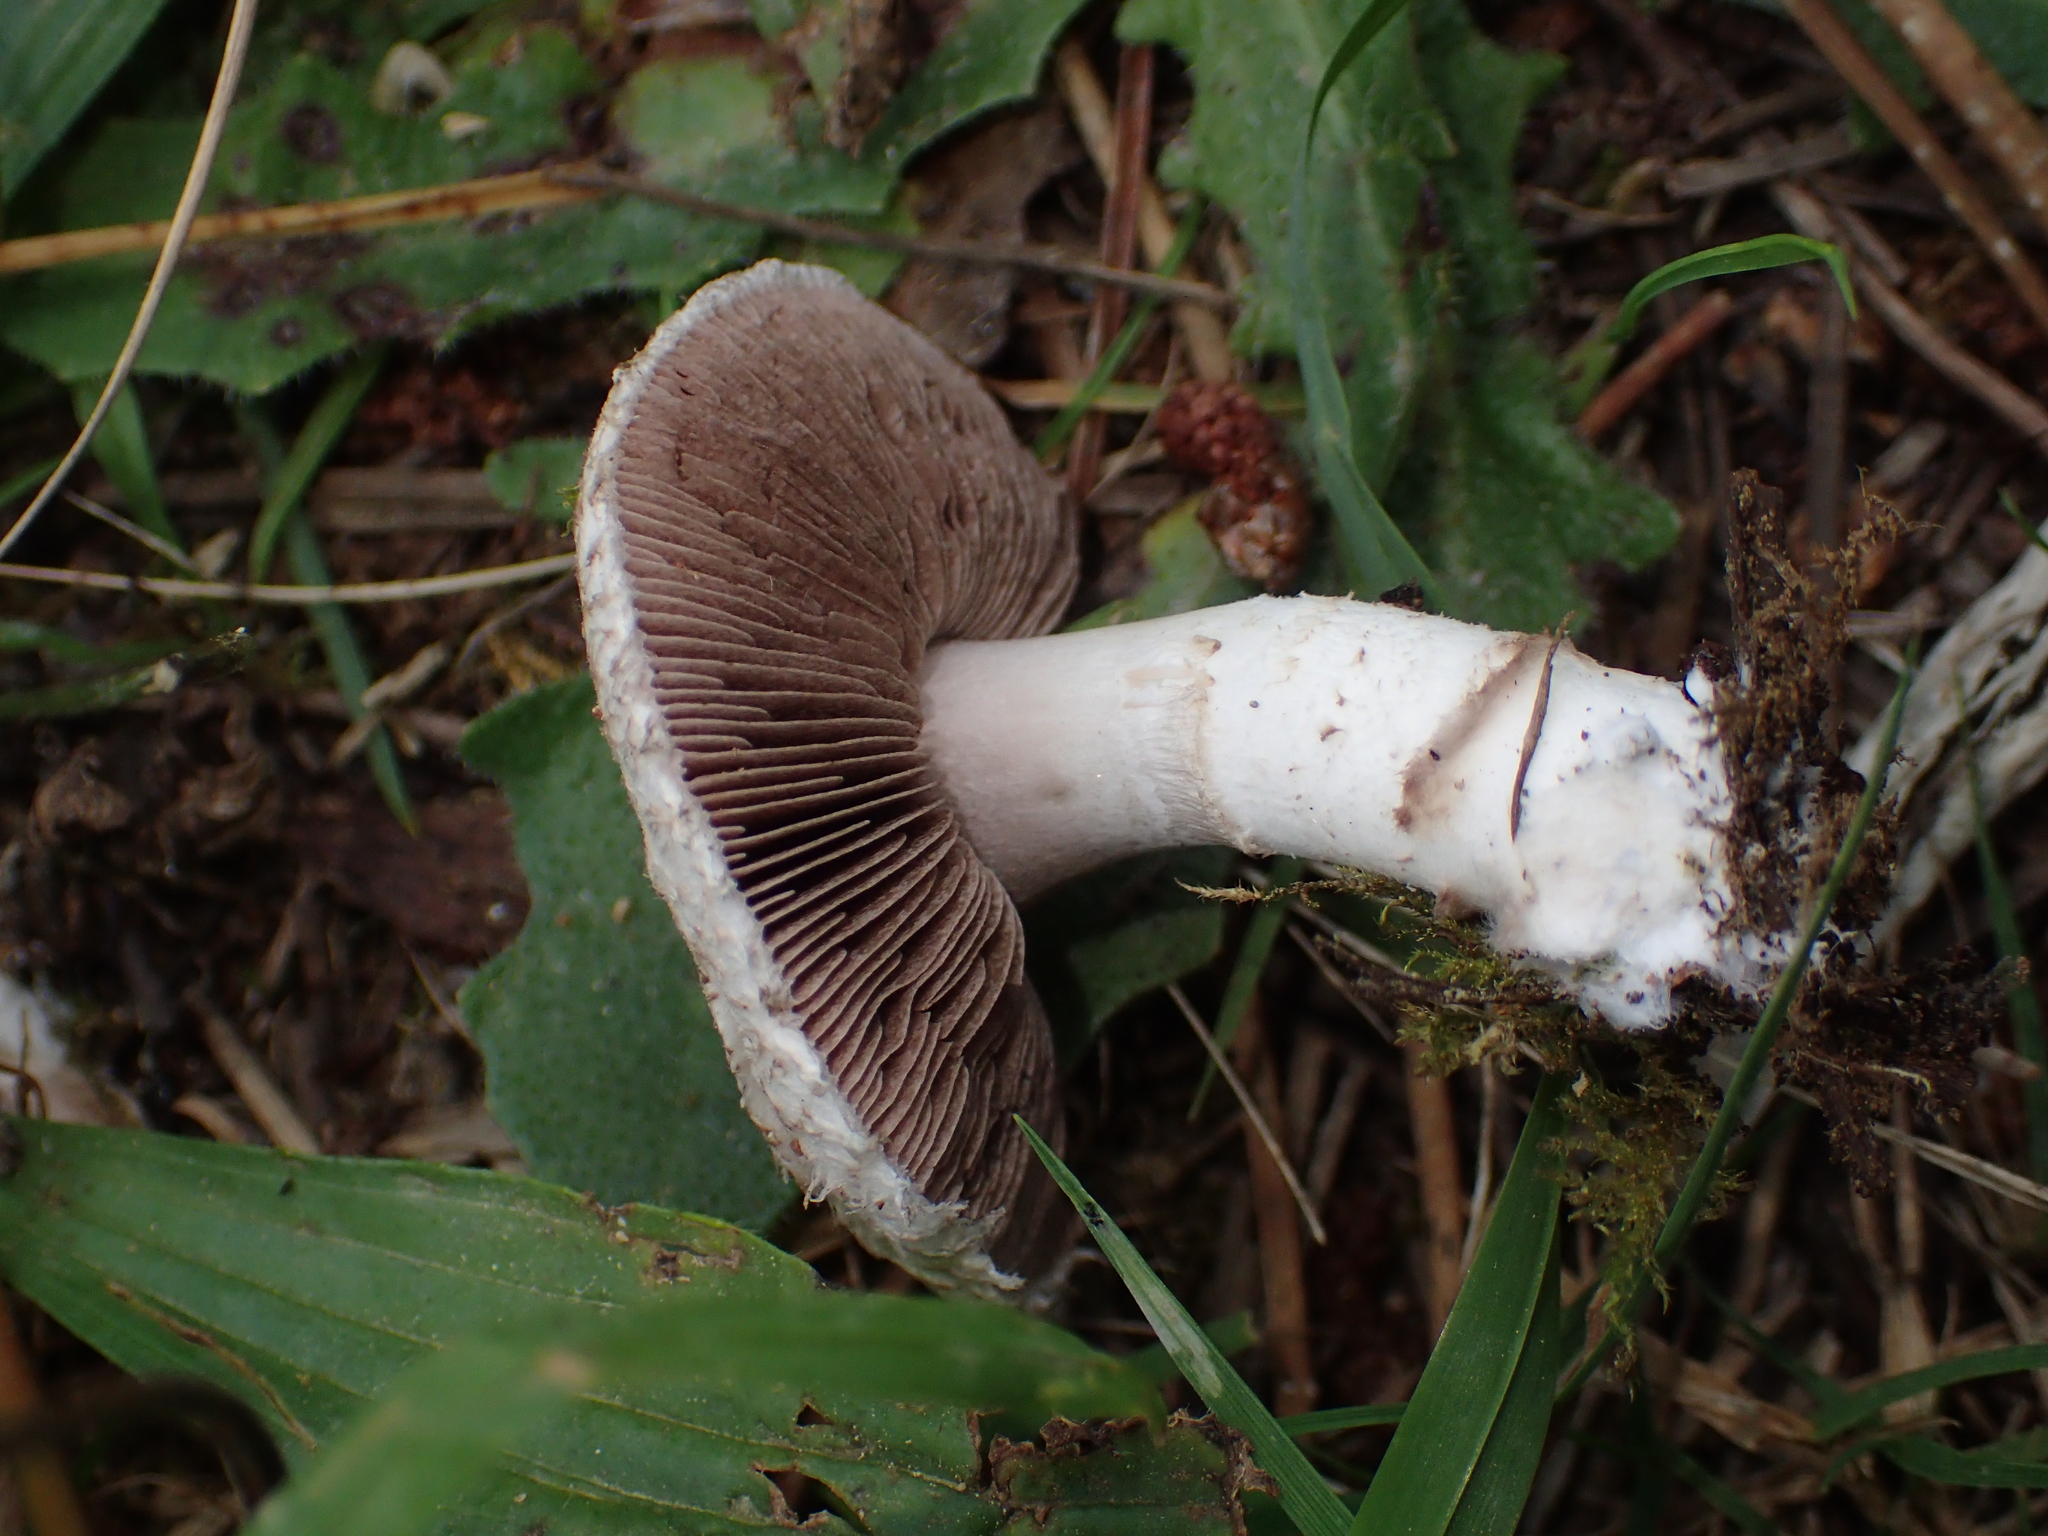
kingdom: Fungi
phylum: Basidiomycota
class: Agaricomycetes
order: Agaricales
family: Agaricaceae
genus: Agaricus
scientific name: Agaricus
